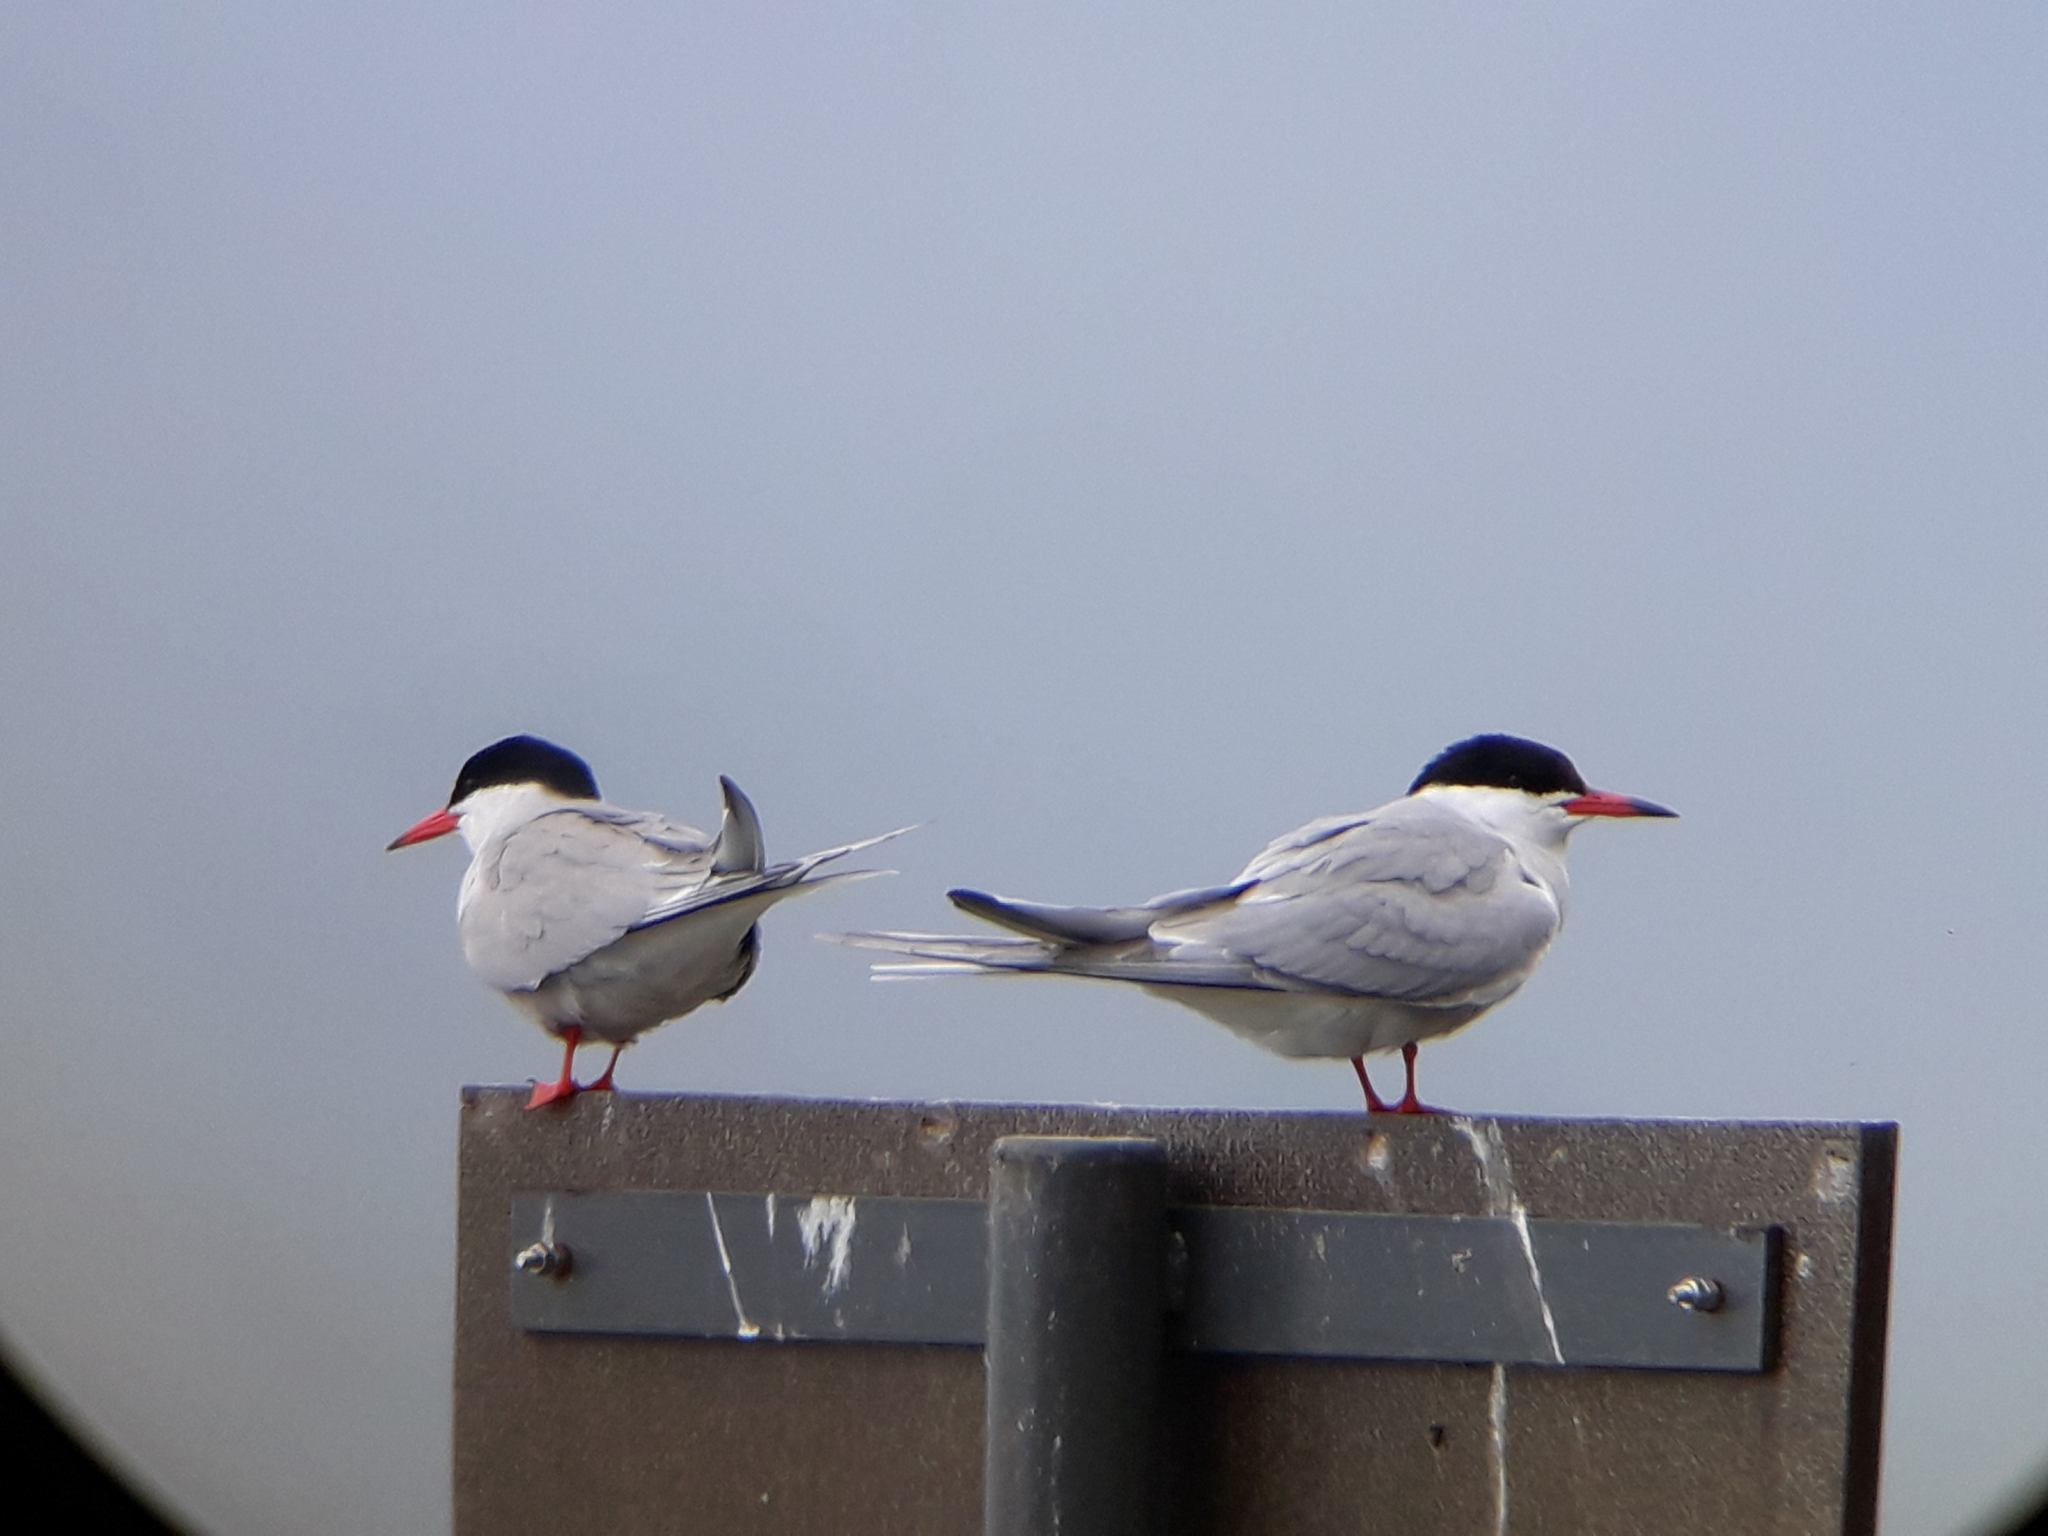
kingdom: Animalia
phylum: Chordata
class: Aves
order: Charadriiformes
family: Laridae
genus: Sterna
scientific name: Sterna hirundo
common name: Common tern
